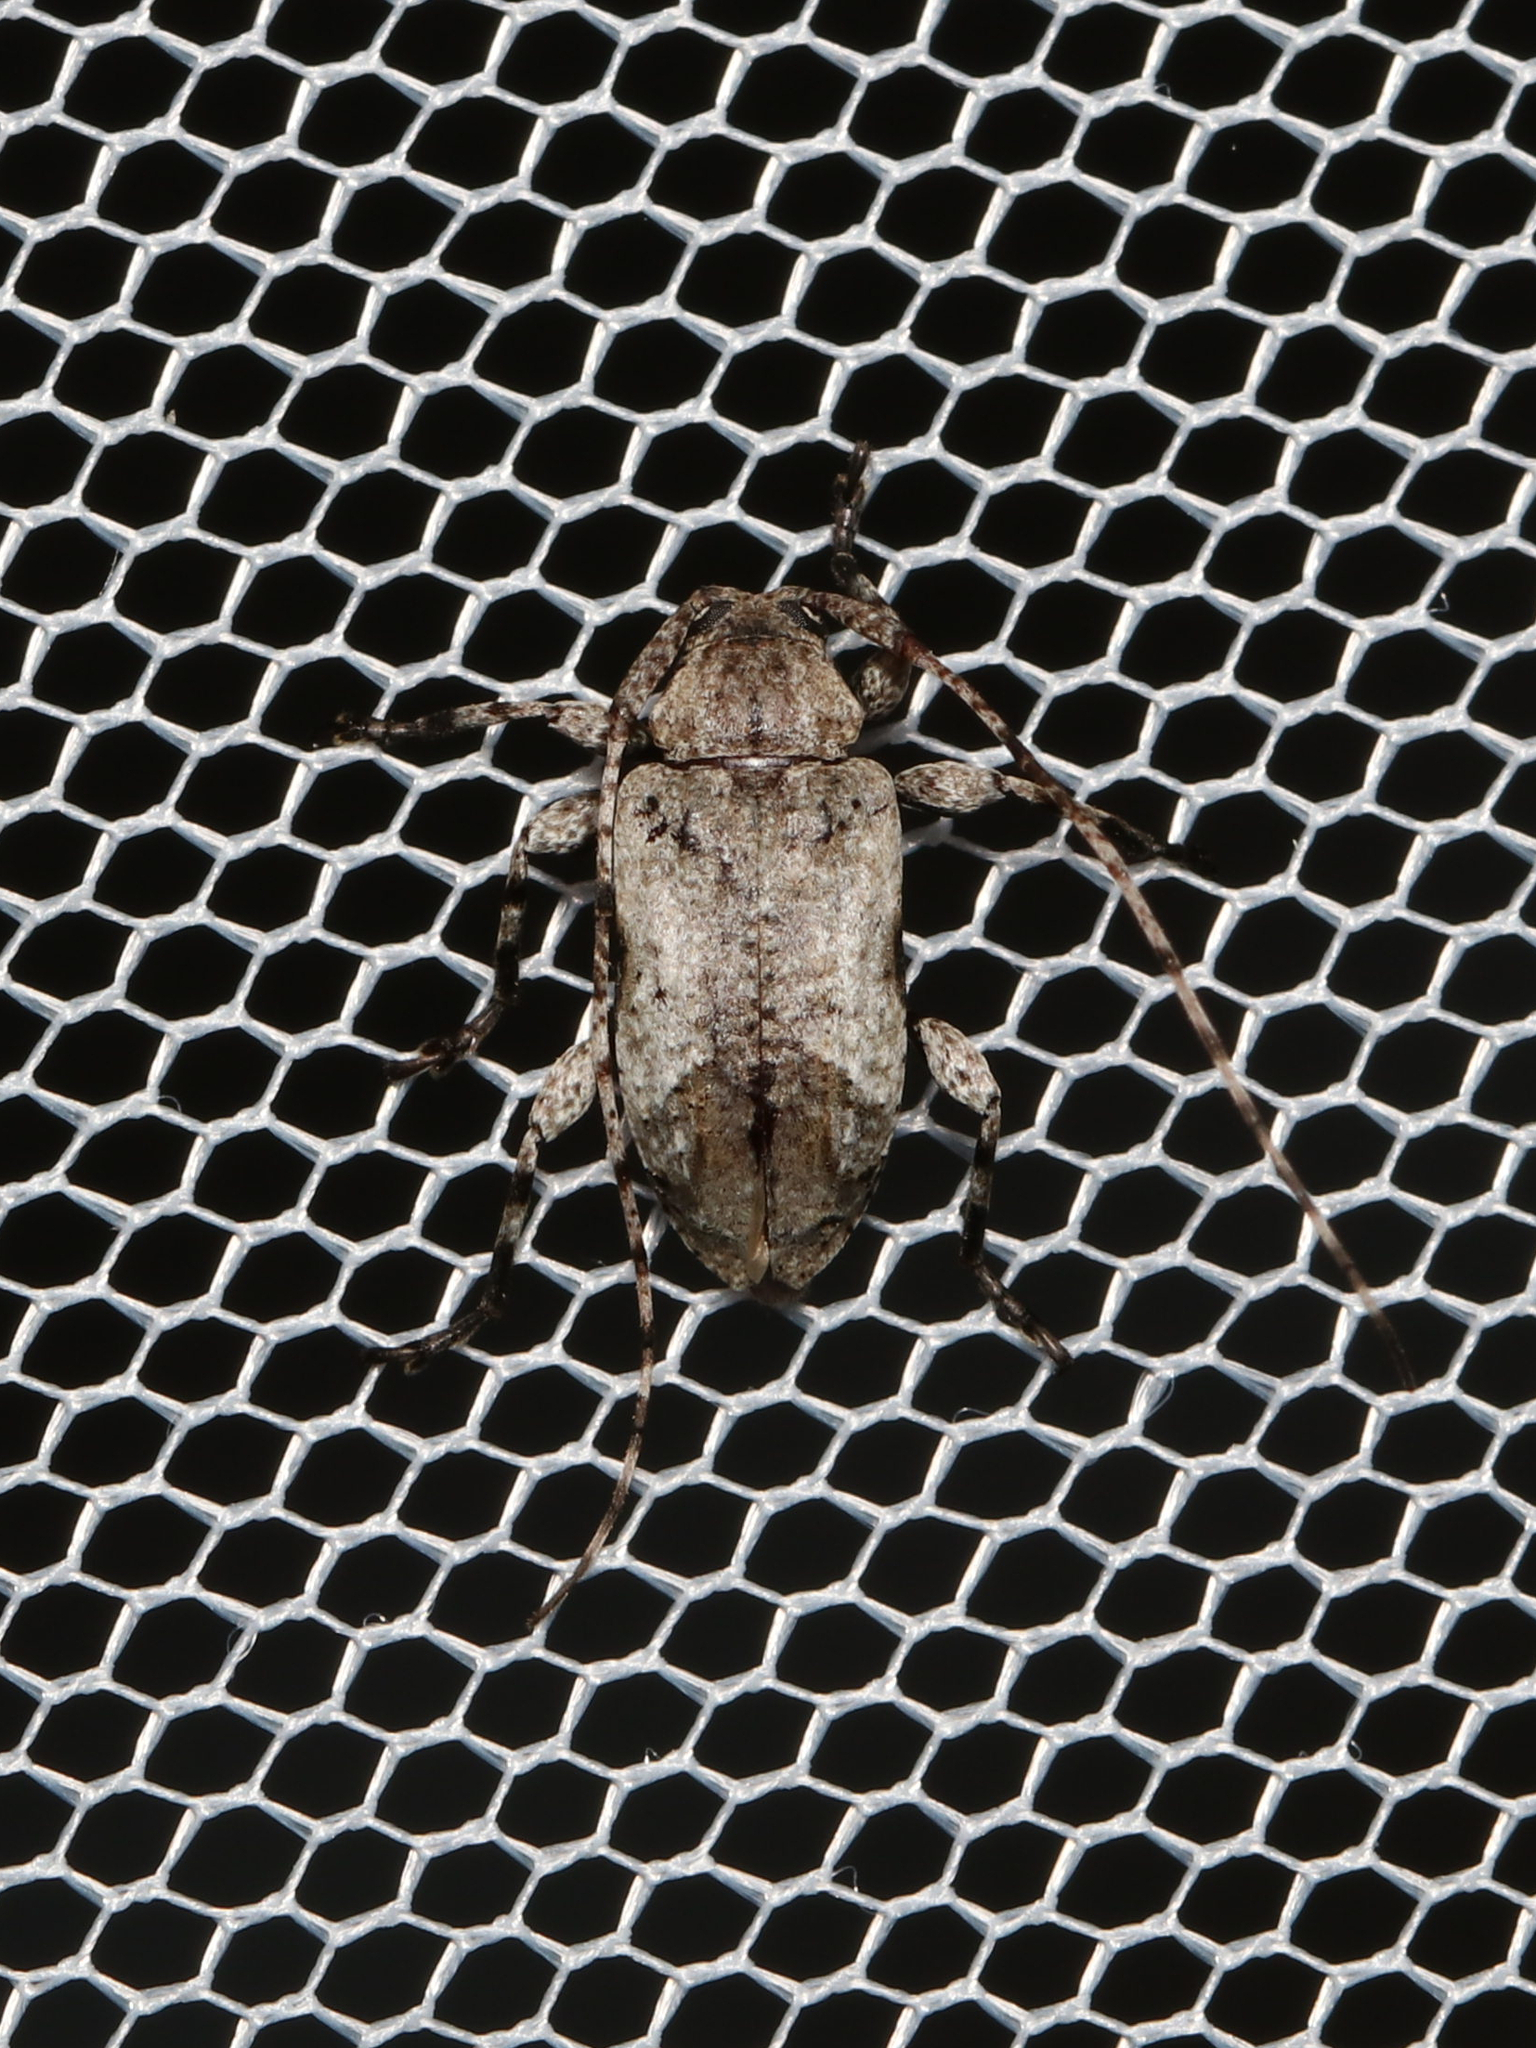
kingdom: Animalia
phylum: Arthropoda
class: Insecta
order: Coleoptera
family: Cerambycidae
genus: Styloleptus
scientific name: Styloleptus biustus
